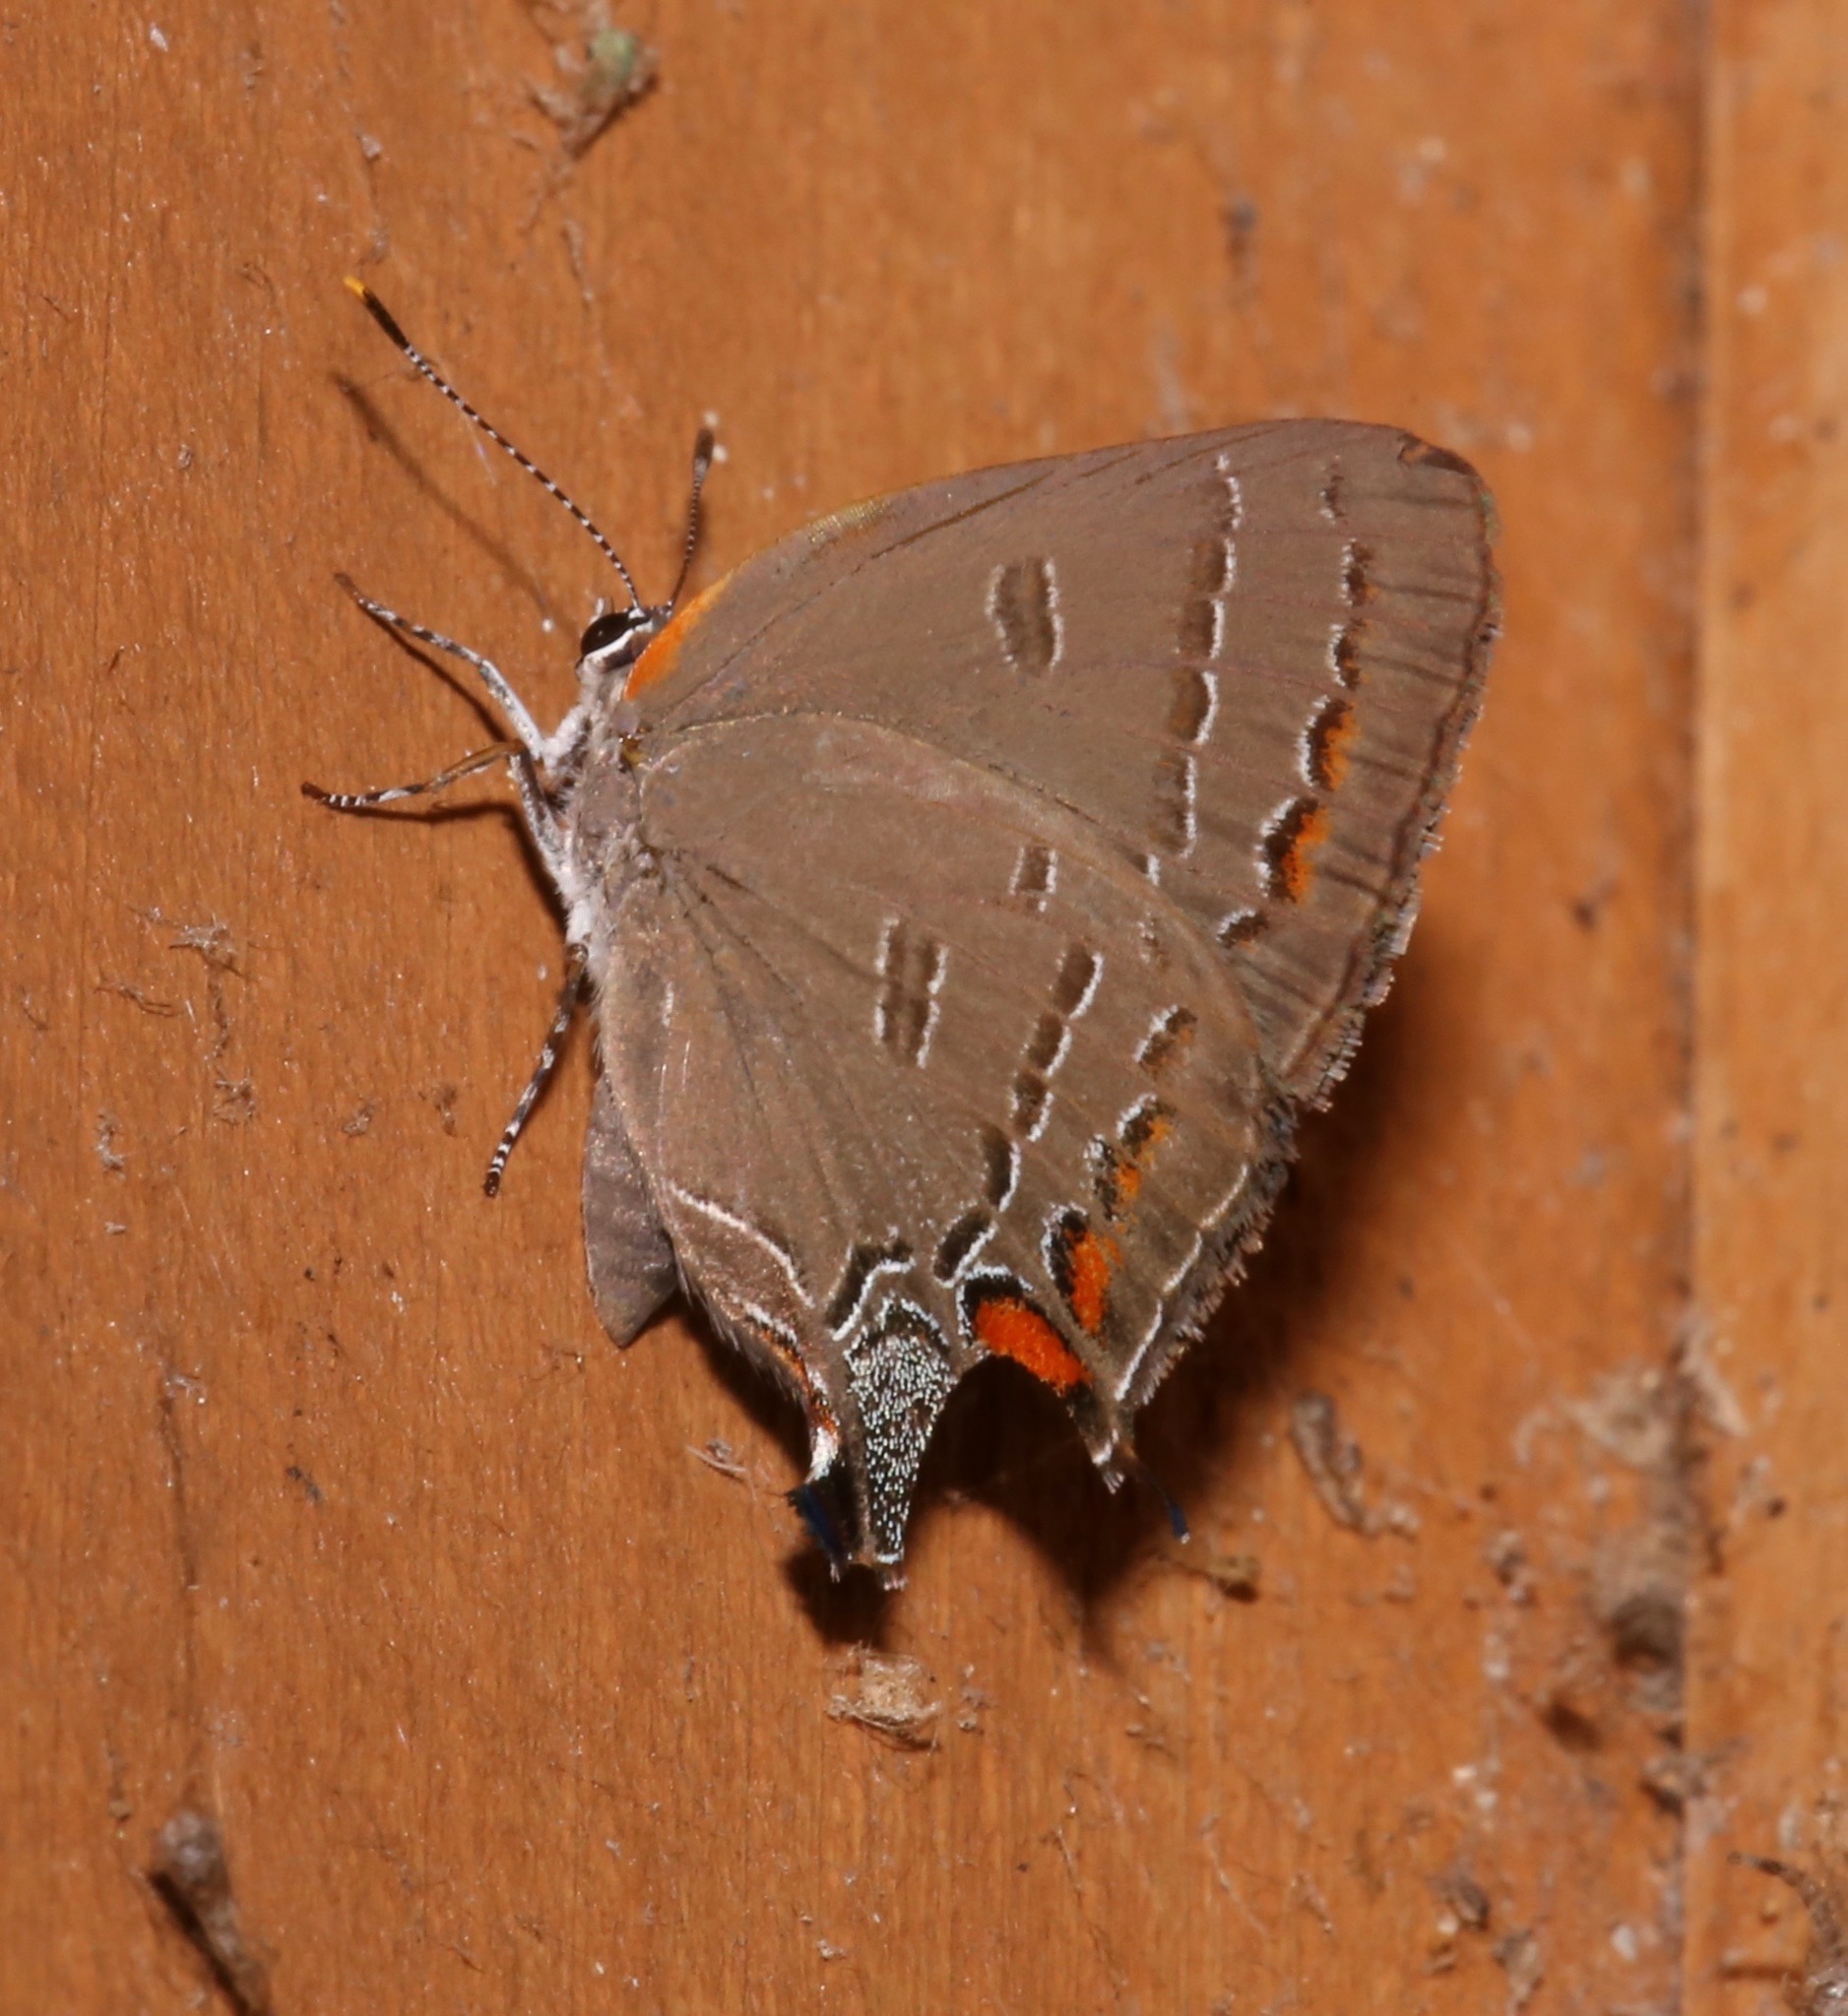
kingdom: Animalia
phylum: Arthropoda
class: Insecta
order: Lepidoptera
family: Lycaenidae
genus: Satyrium
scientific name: Satyrium calanus
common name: Banded hairstreak
